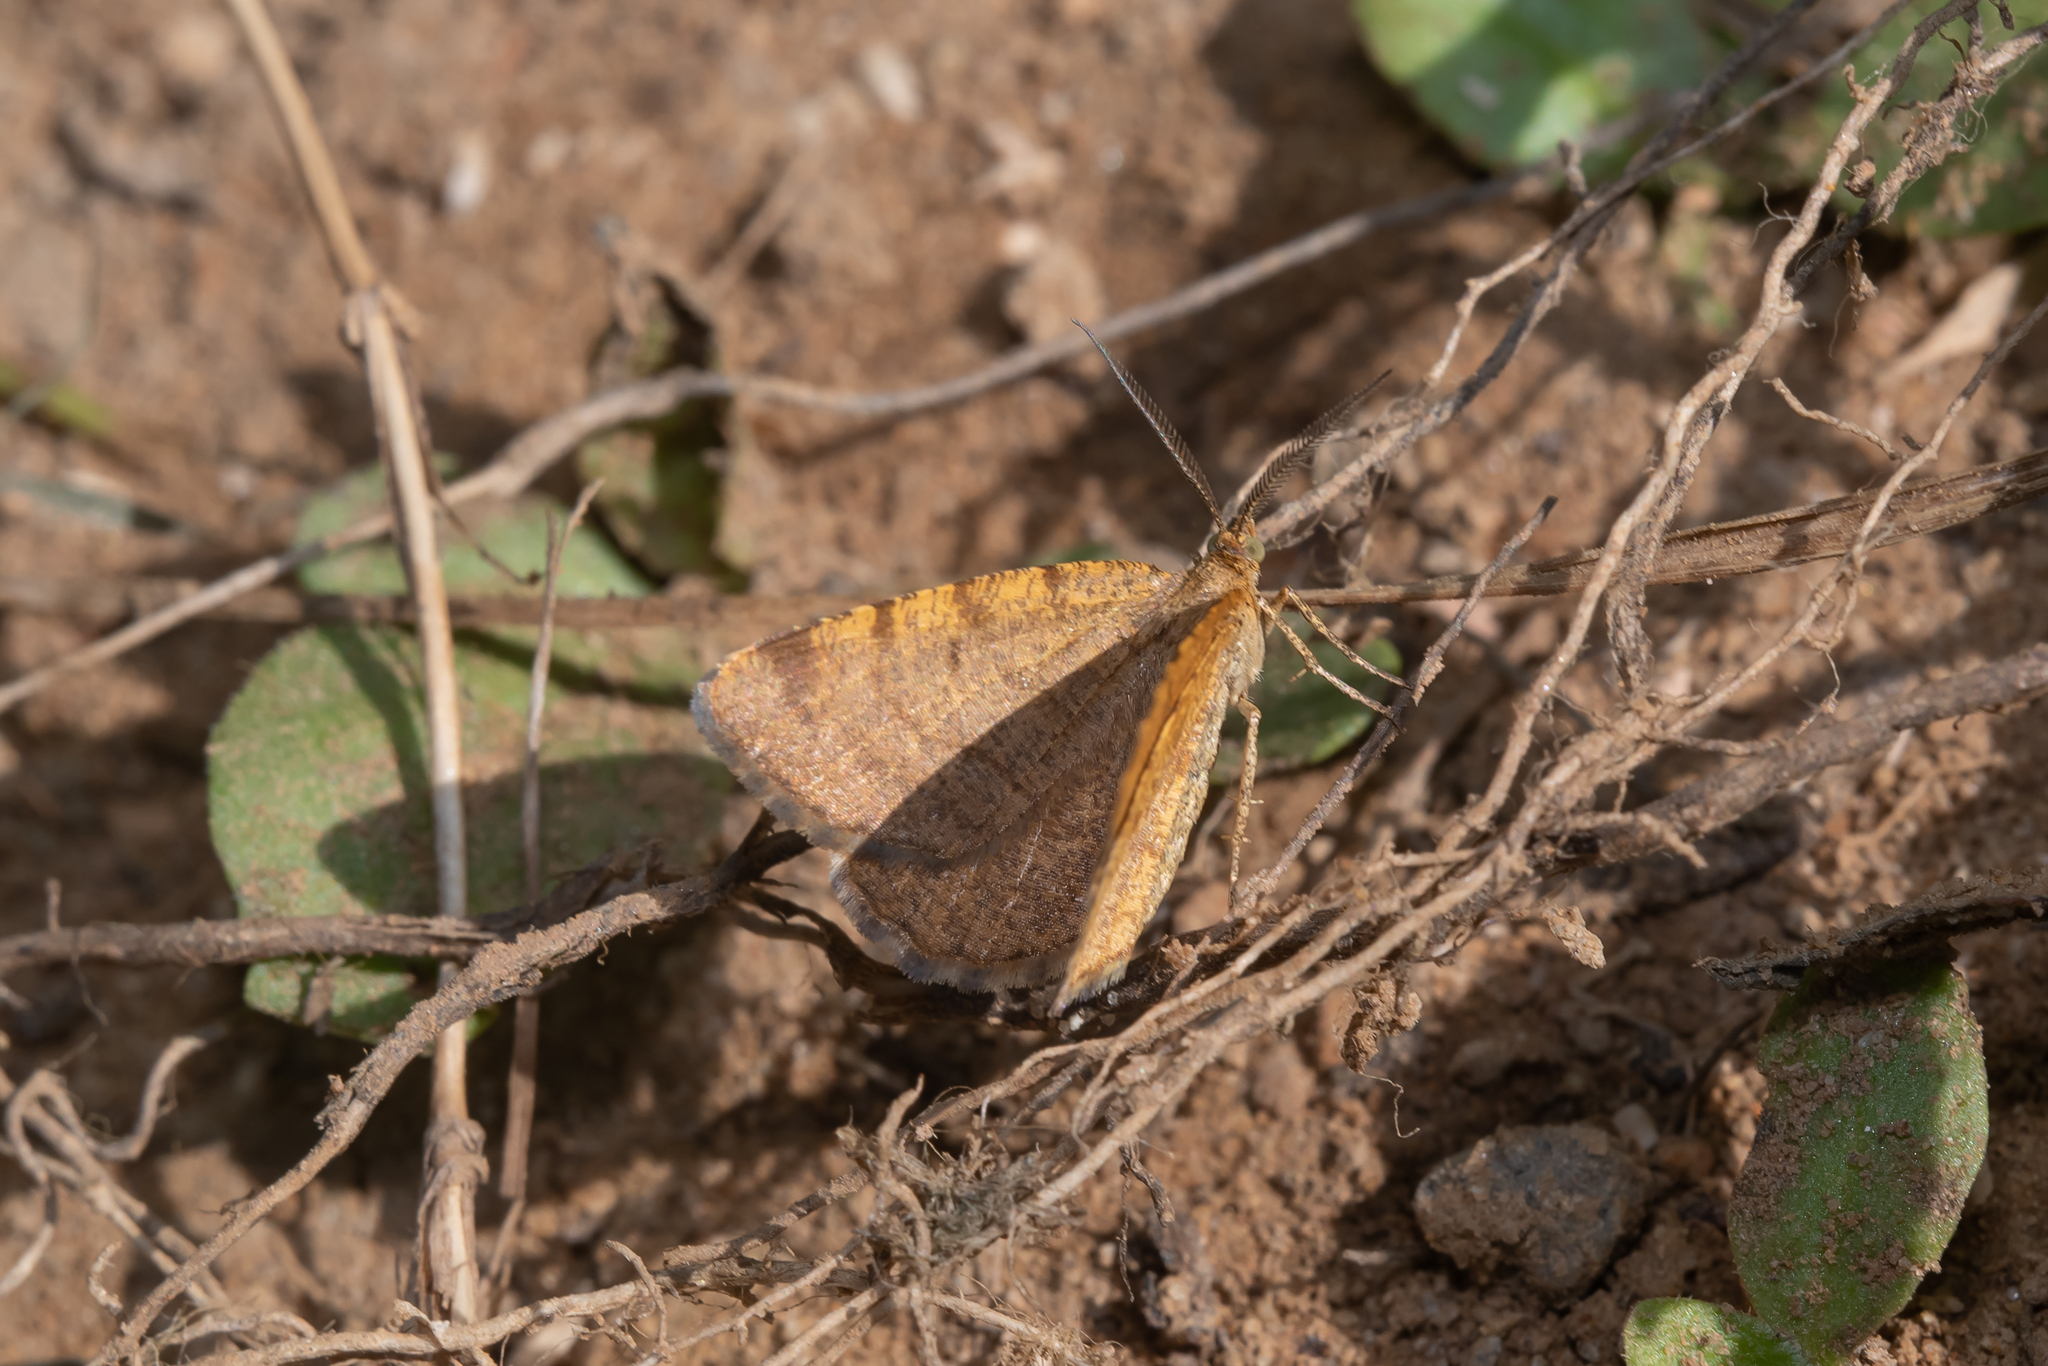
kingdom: Animalia
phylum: Arthropoda
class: Insecta
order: Lepidoptera
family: Geometridae
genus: Macaria
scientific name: Macaria brunneata
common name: Rannoch looper
